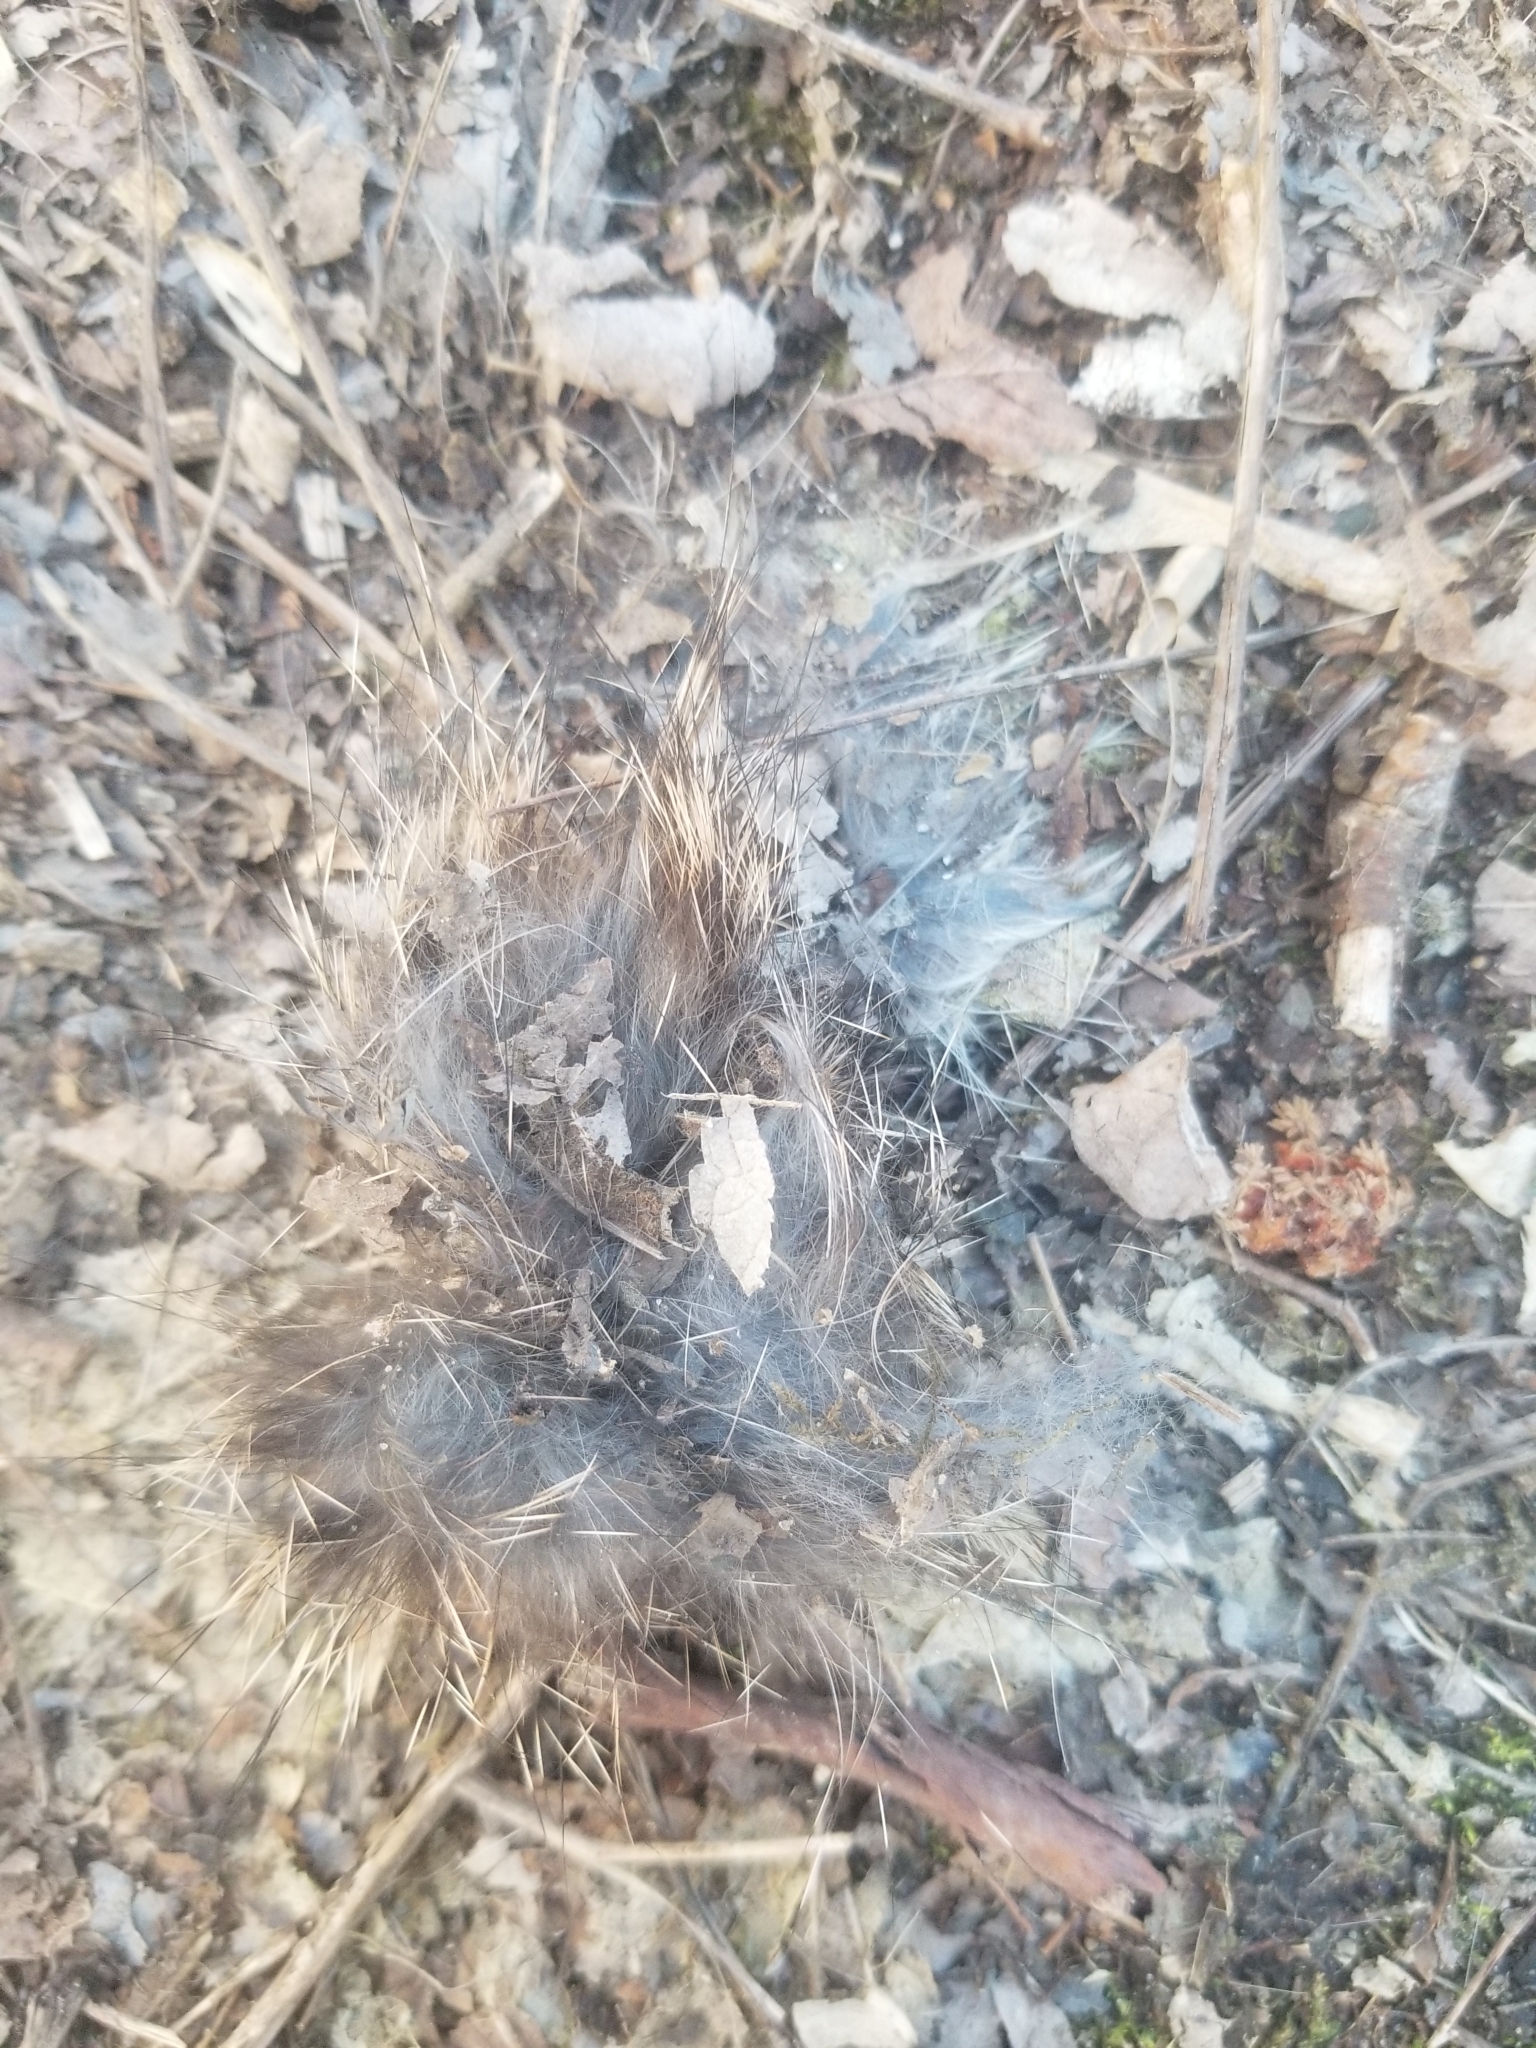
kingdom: Animalia
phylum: Chordata
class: Mammalia
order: Lagomorpha
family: Leporidae
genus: Sylvilagus
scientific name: Sylvilagus floridanus
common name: Eastern cottontail
